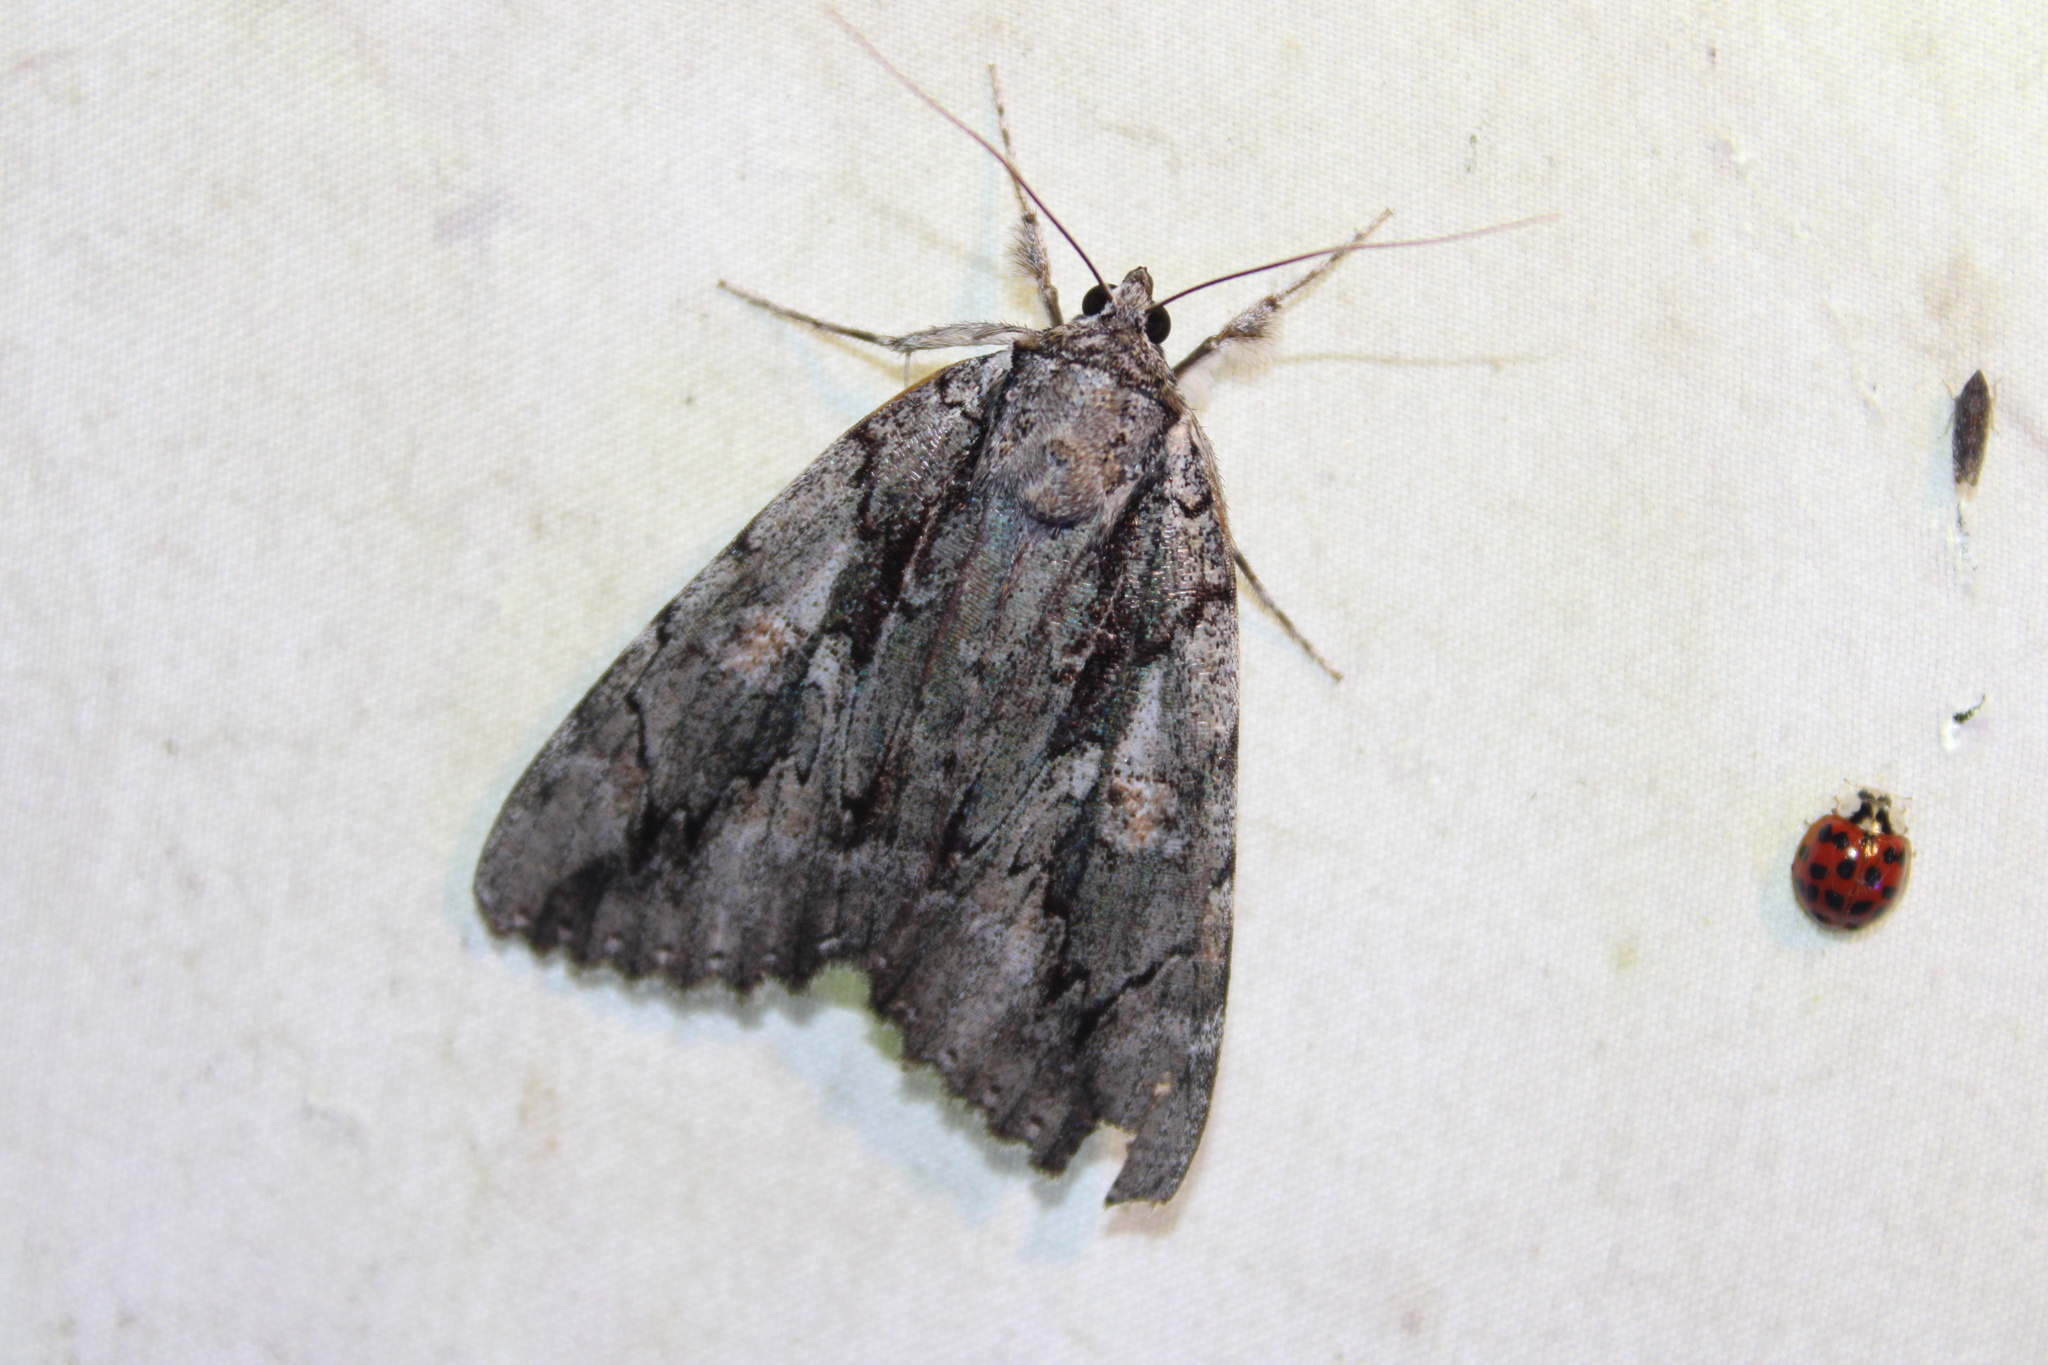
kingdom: Animalia
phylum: Arthropoda
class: Insecta
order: Lepidoptera
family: Erebidae
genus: Catocala
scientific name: Catocala flebilis
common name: Mournful underwing
